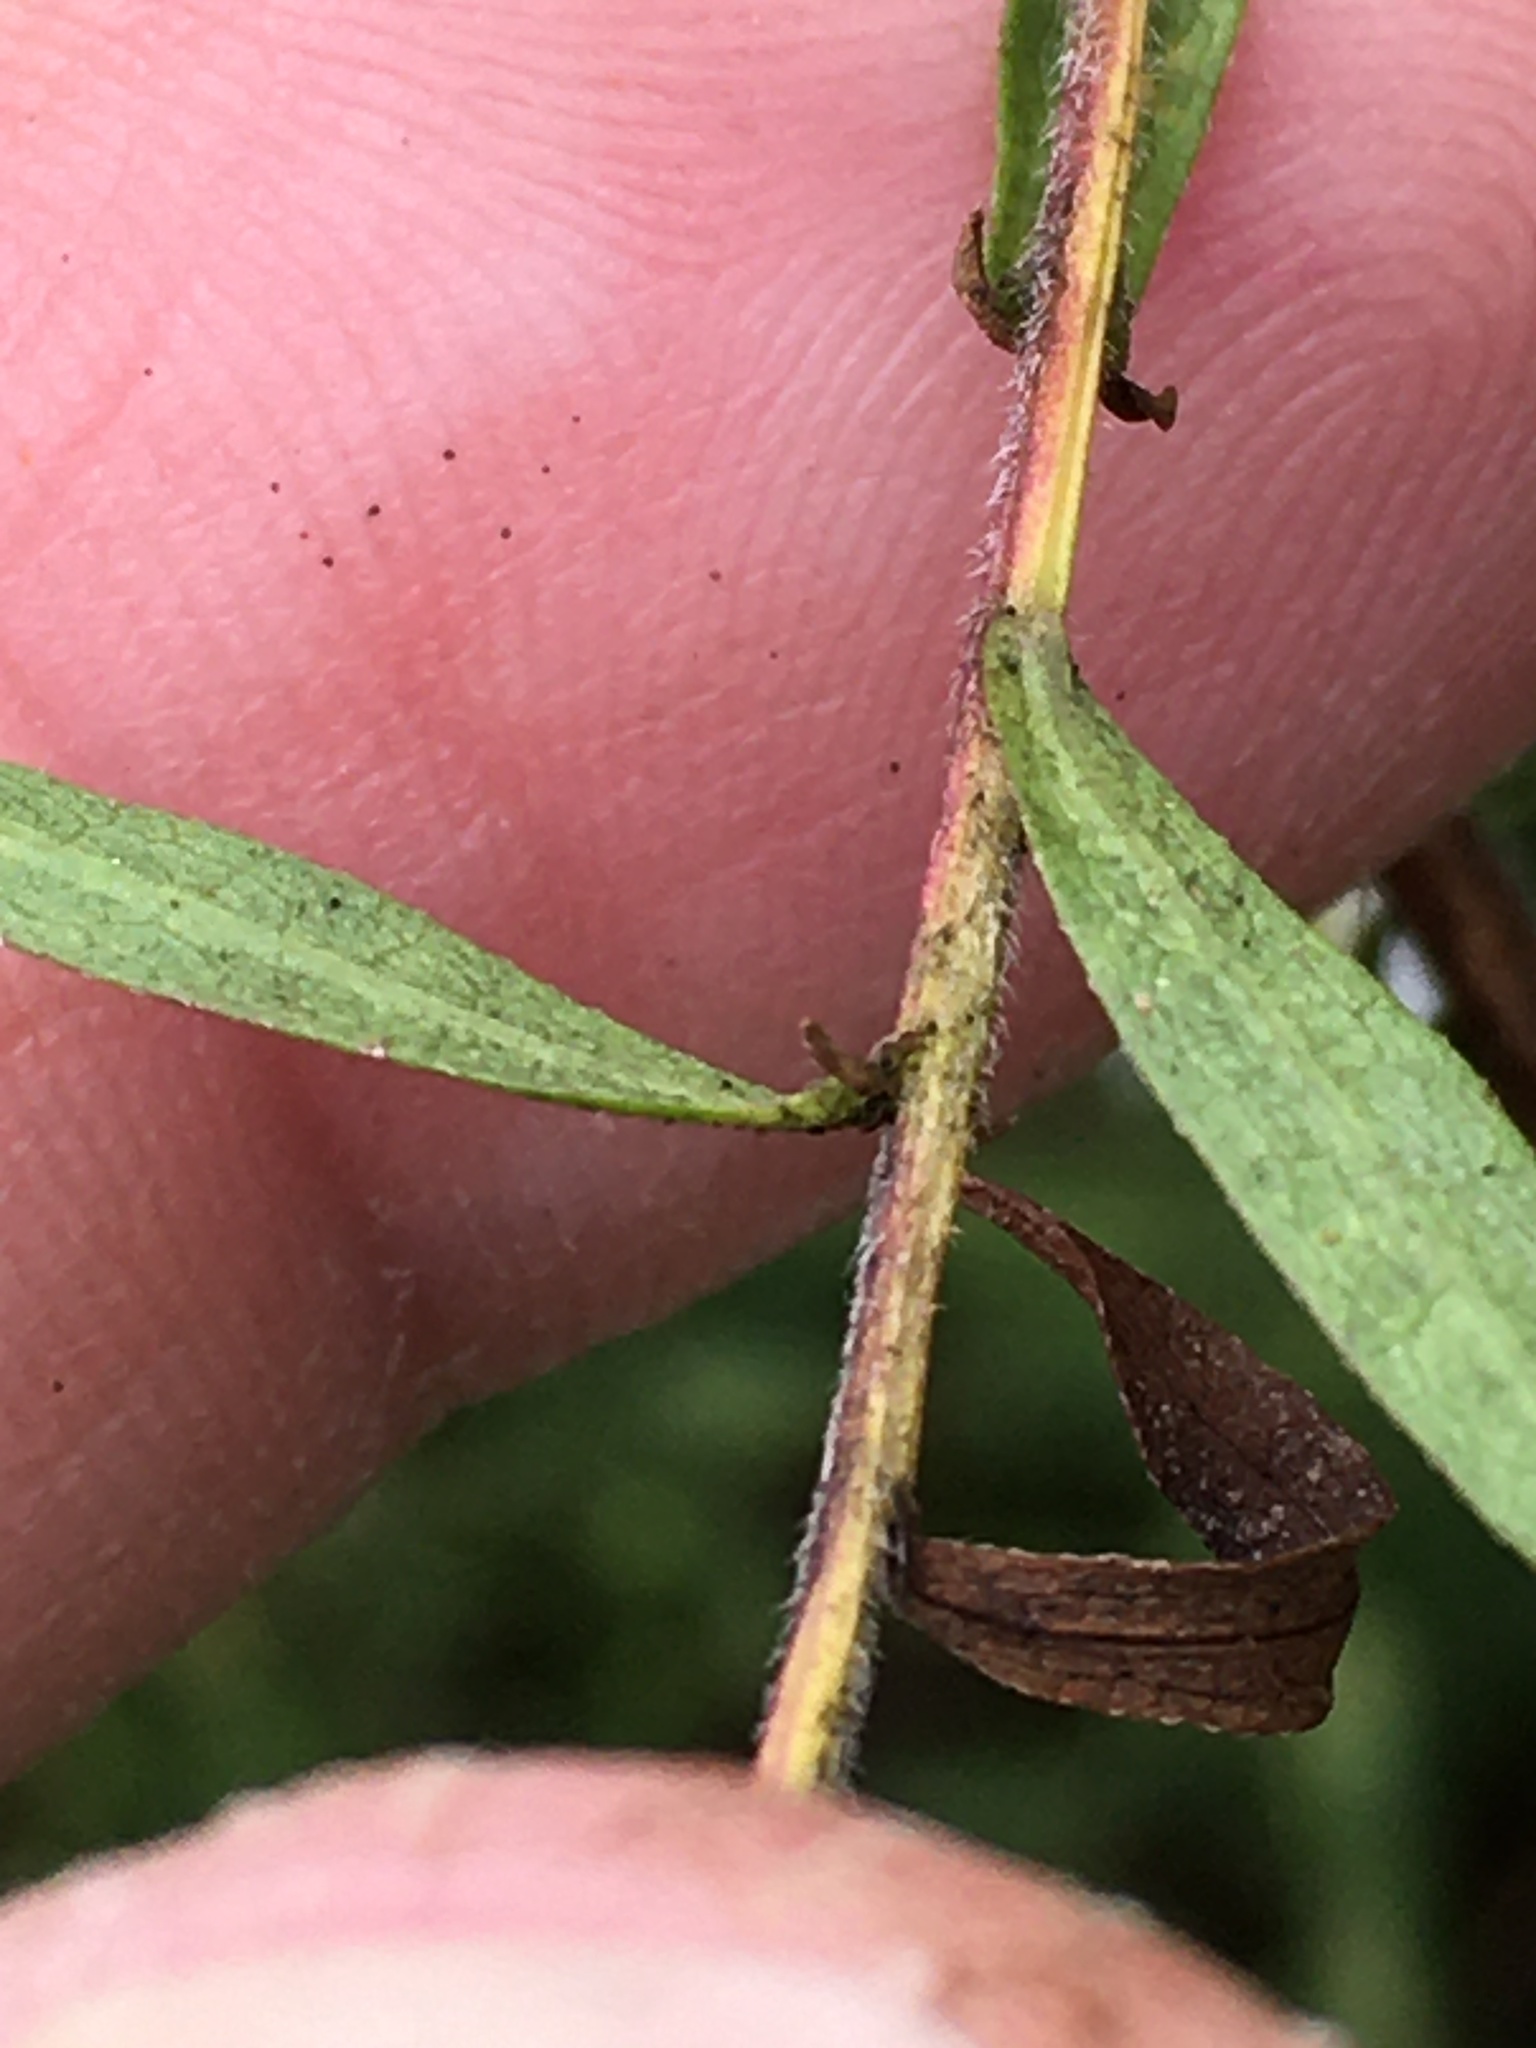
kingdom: Plantae
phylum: Tracheophyta
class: Magnoliopsida
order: Asterales
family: Asteraceae
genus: Symphyotrichum
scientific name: Symphyotrichum pilosum
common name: Awl aster
